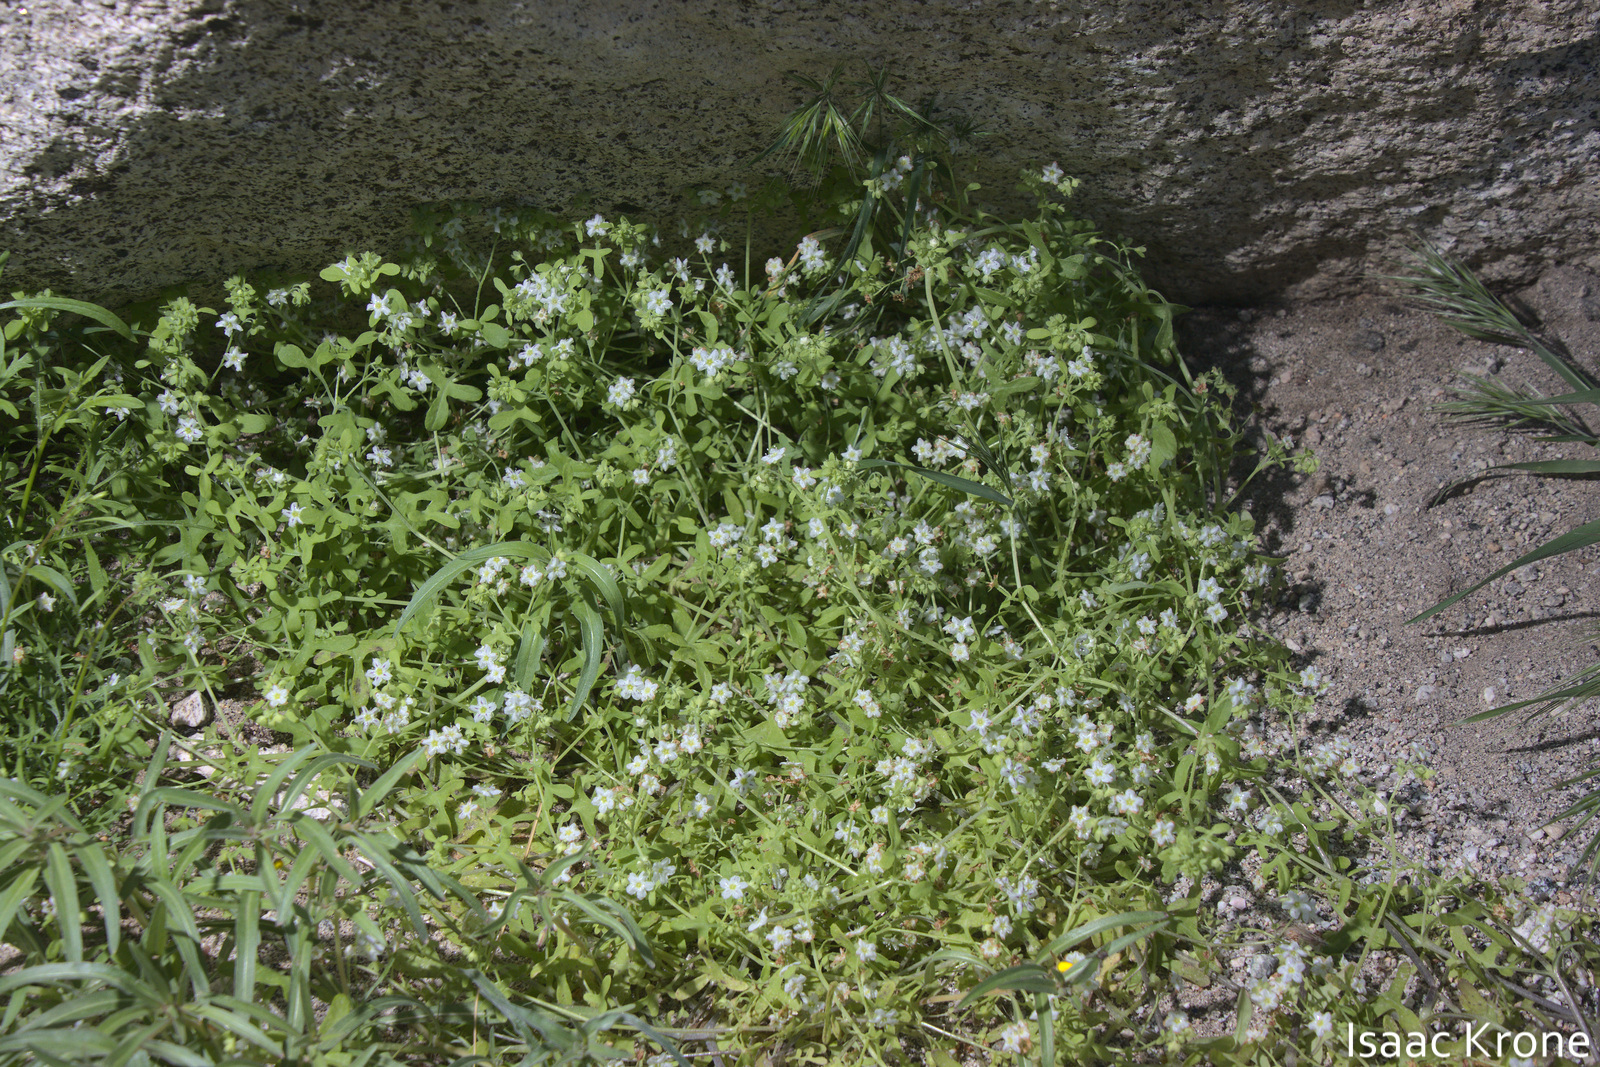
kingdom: Plantae
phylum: Tracheophyta
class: Magnoliopsida
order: Boraginales
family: Hydrophyllaceae
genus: Pholistoma
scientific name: Pholistoma membranaceum
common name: White fiesta-flower
